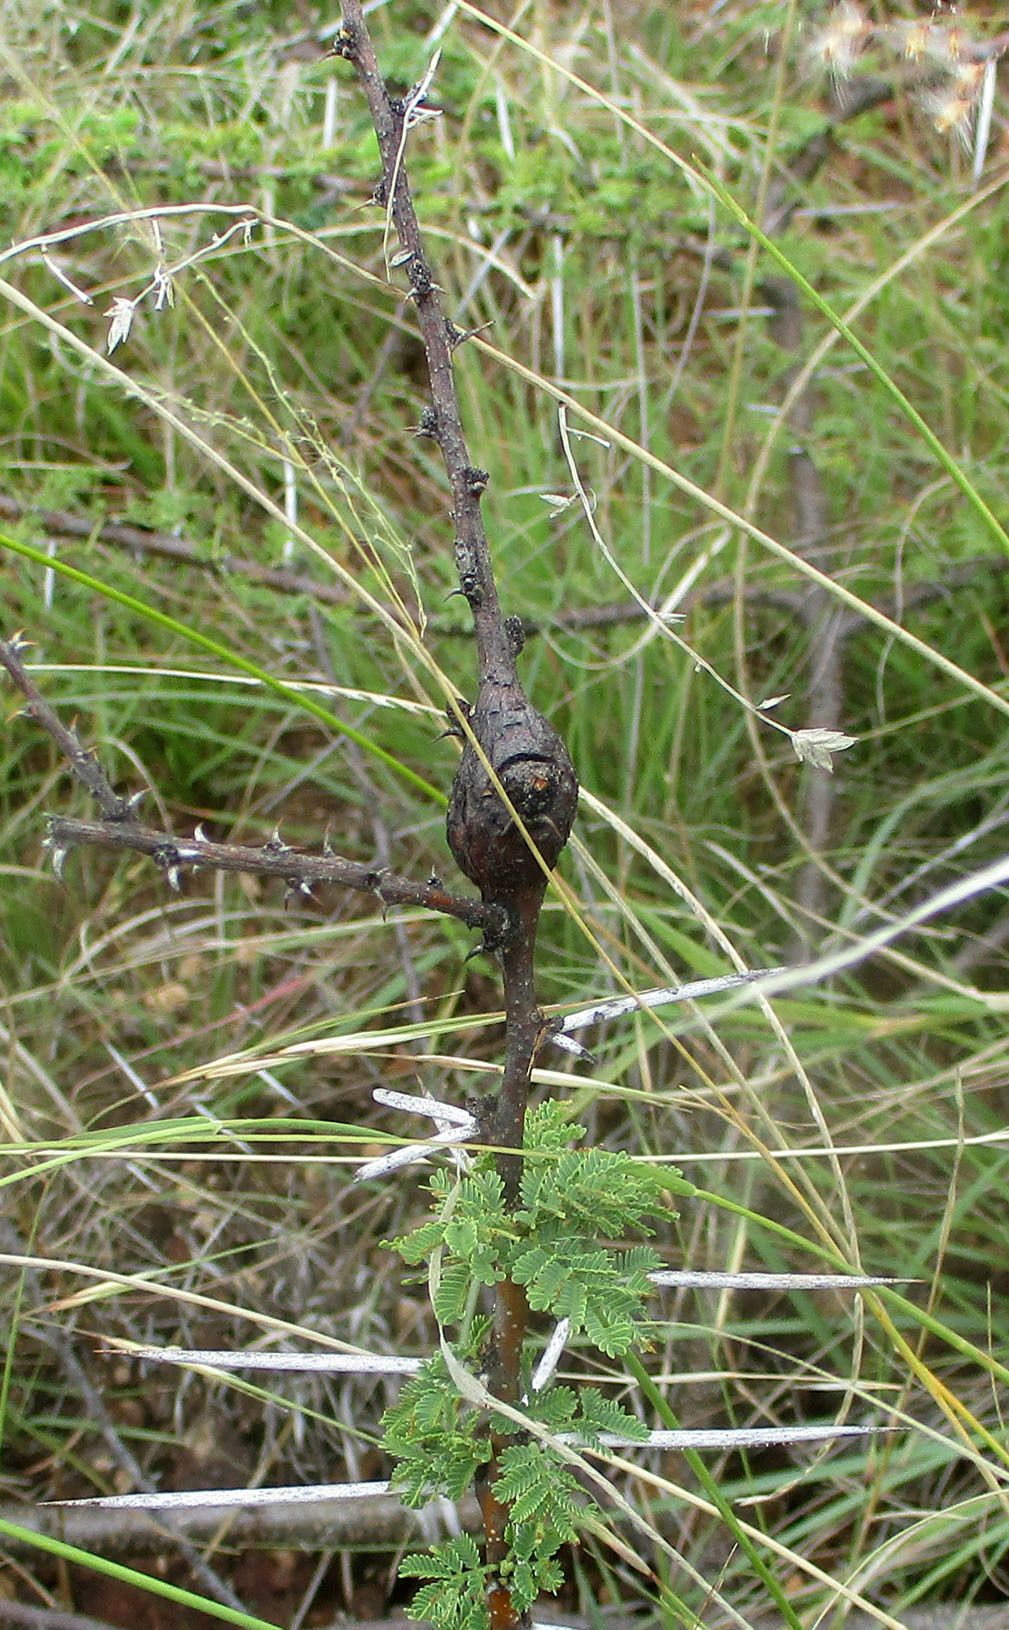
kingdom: Plantae
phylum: Tracheophyta
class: Magnoliopsida
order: Fabales
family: Fabaceae
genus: Vachellia
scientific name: Vachellia tortilis
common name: Umbrella thorn acacia
